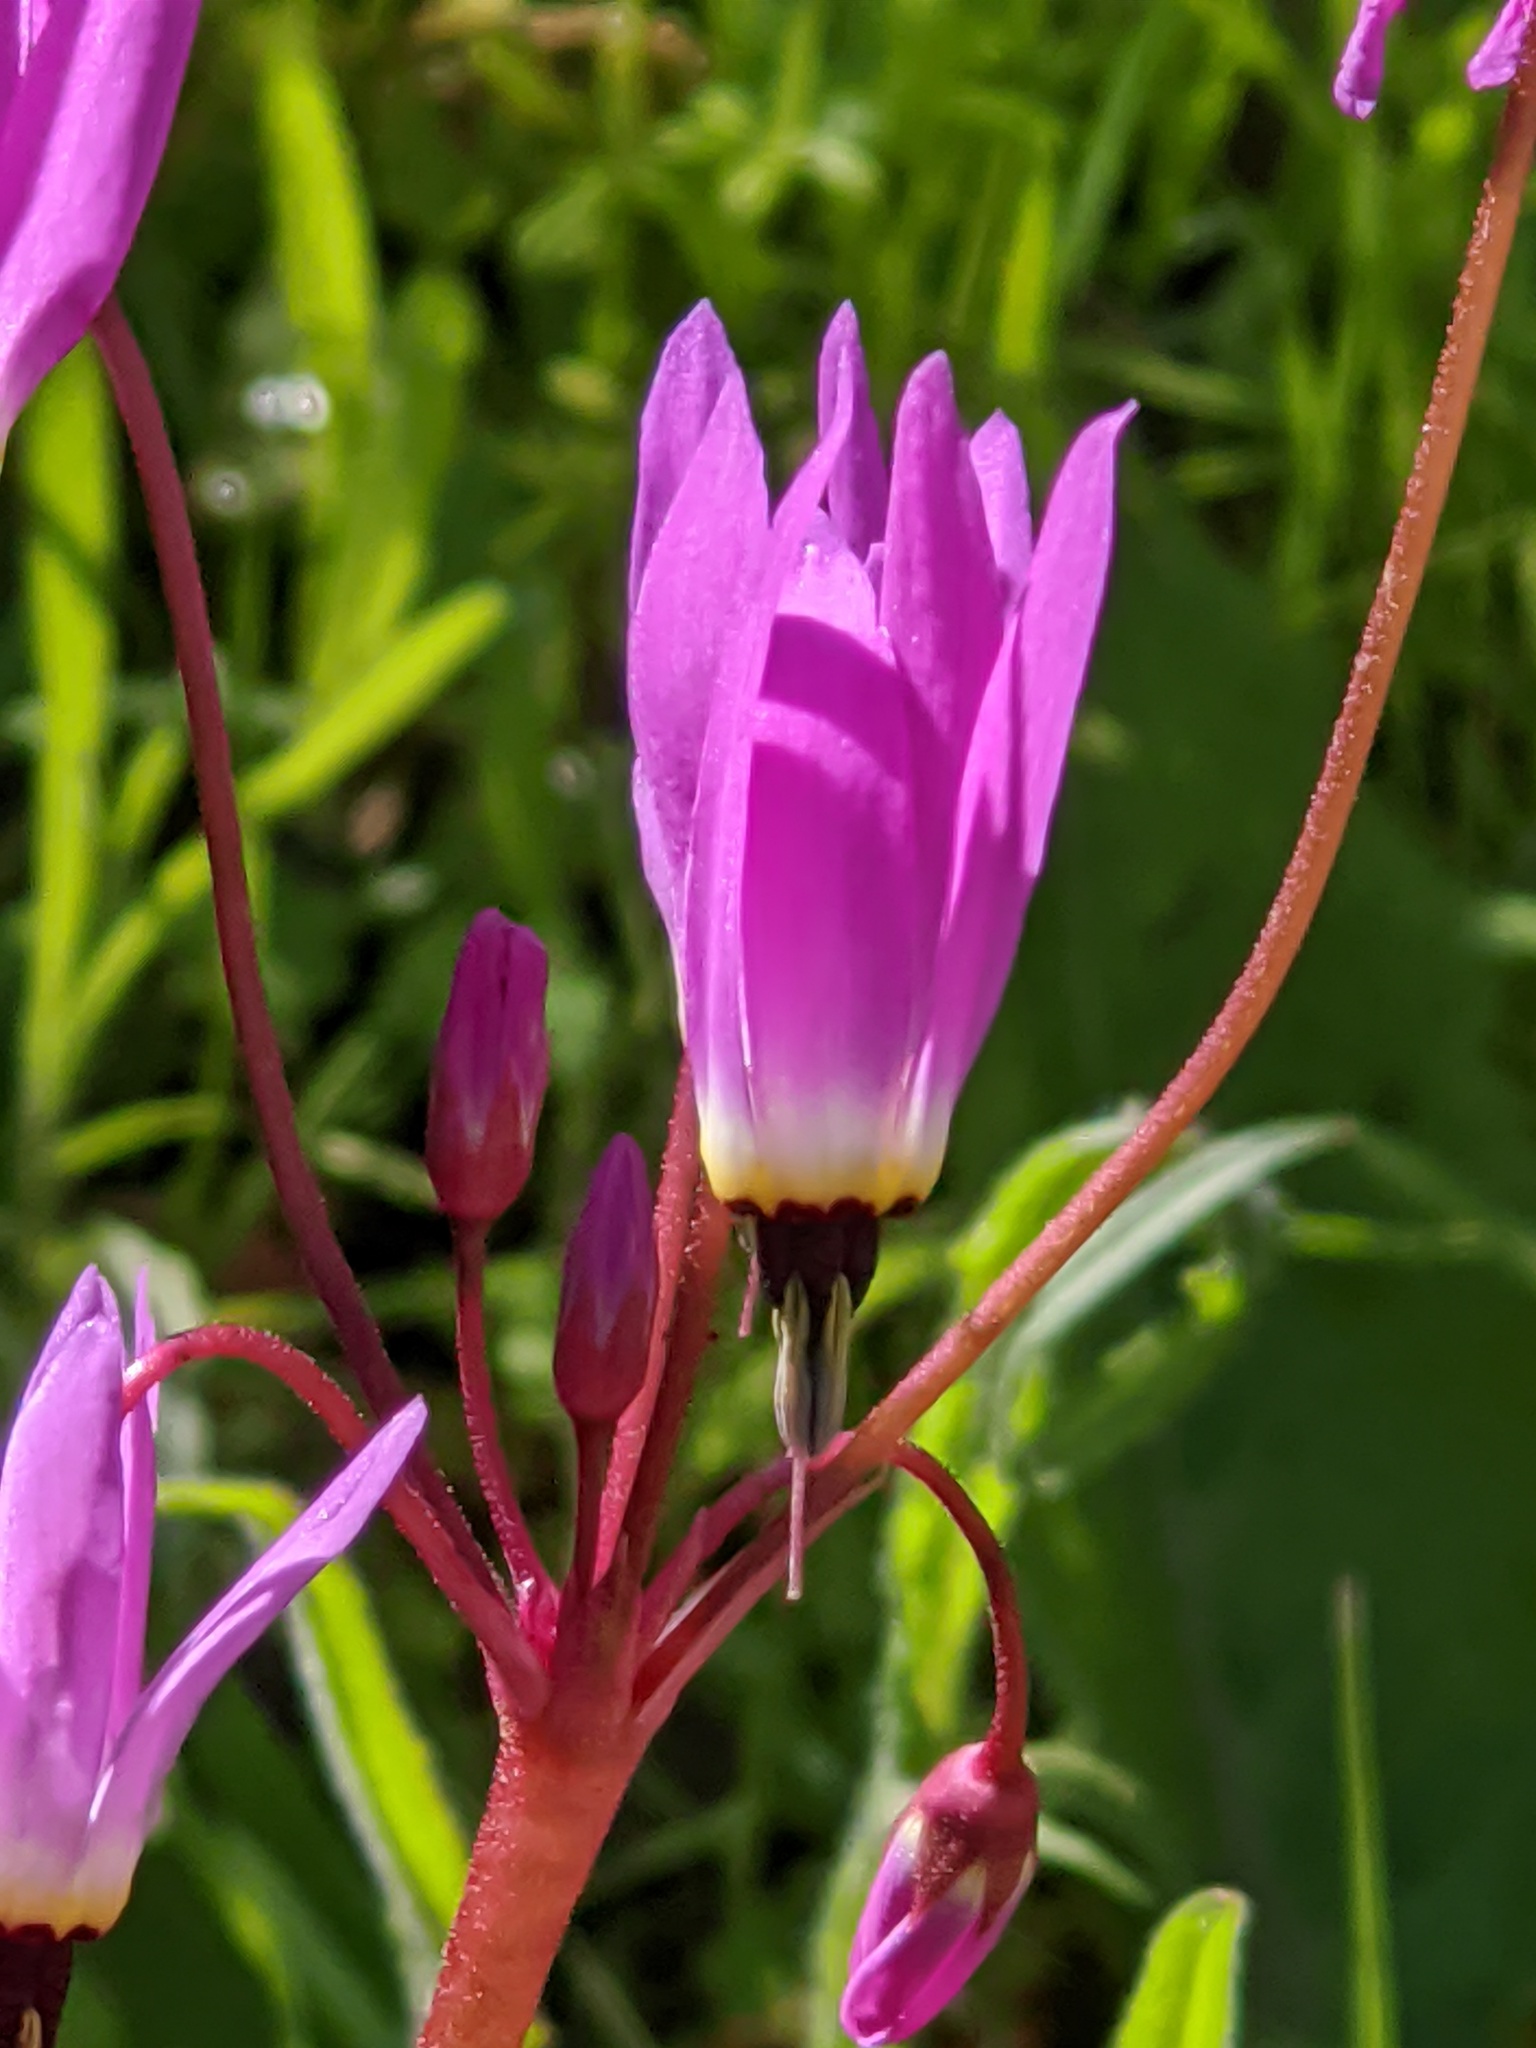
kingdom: Plantae
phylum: Tracheophyta
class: Magnoliopsida
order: Ericales
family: Primulaceae
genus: Dodecatheon
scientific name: Dodecatheon hendersonii
